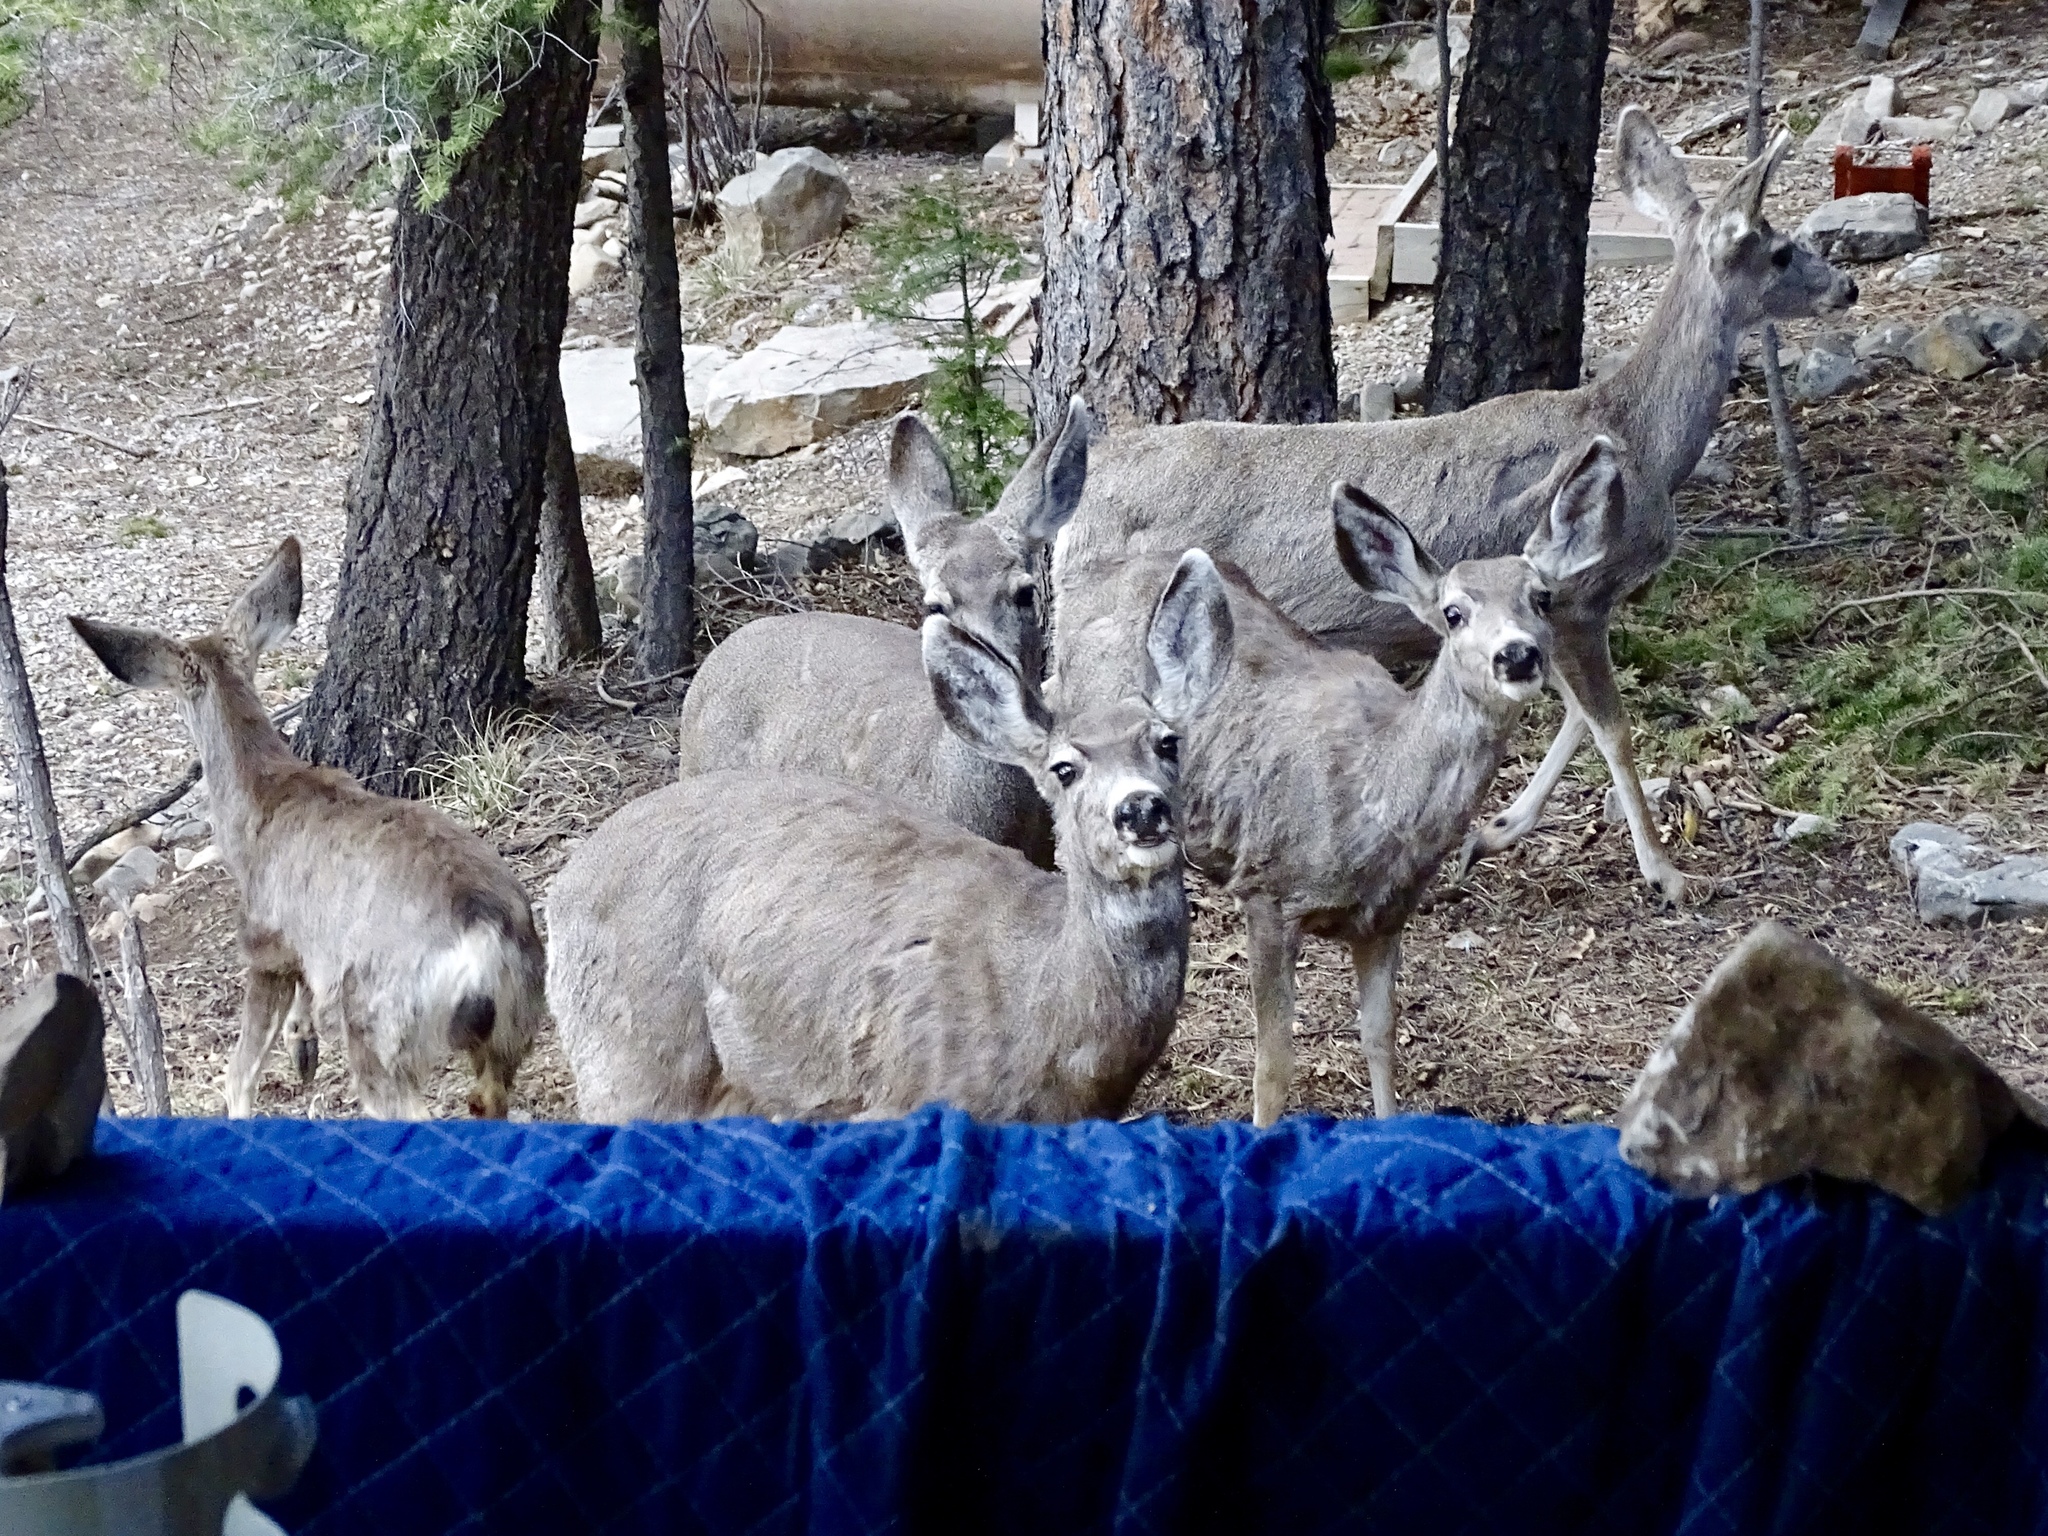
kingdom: Animalia
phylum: Chordata
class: Mammalia
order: Artiodactyla
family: Cervidae
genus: Odocoileus
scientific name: Odocoileus hemionus
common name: Mule deer
